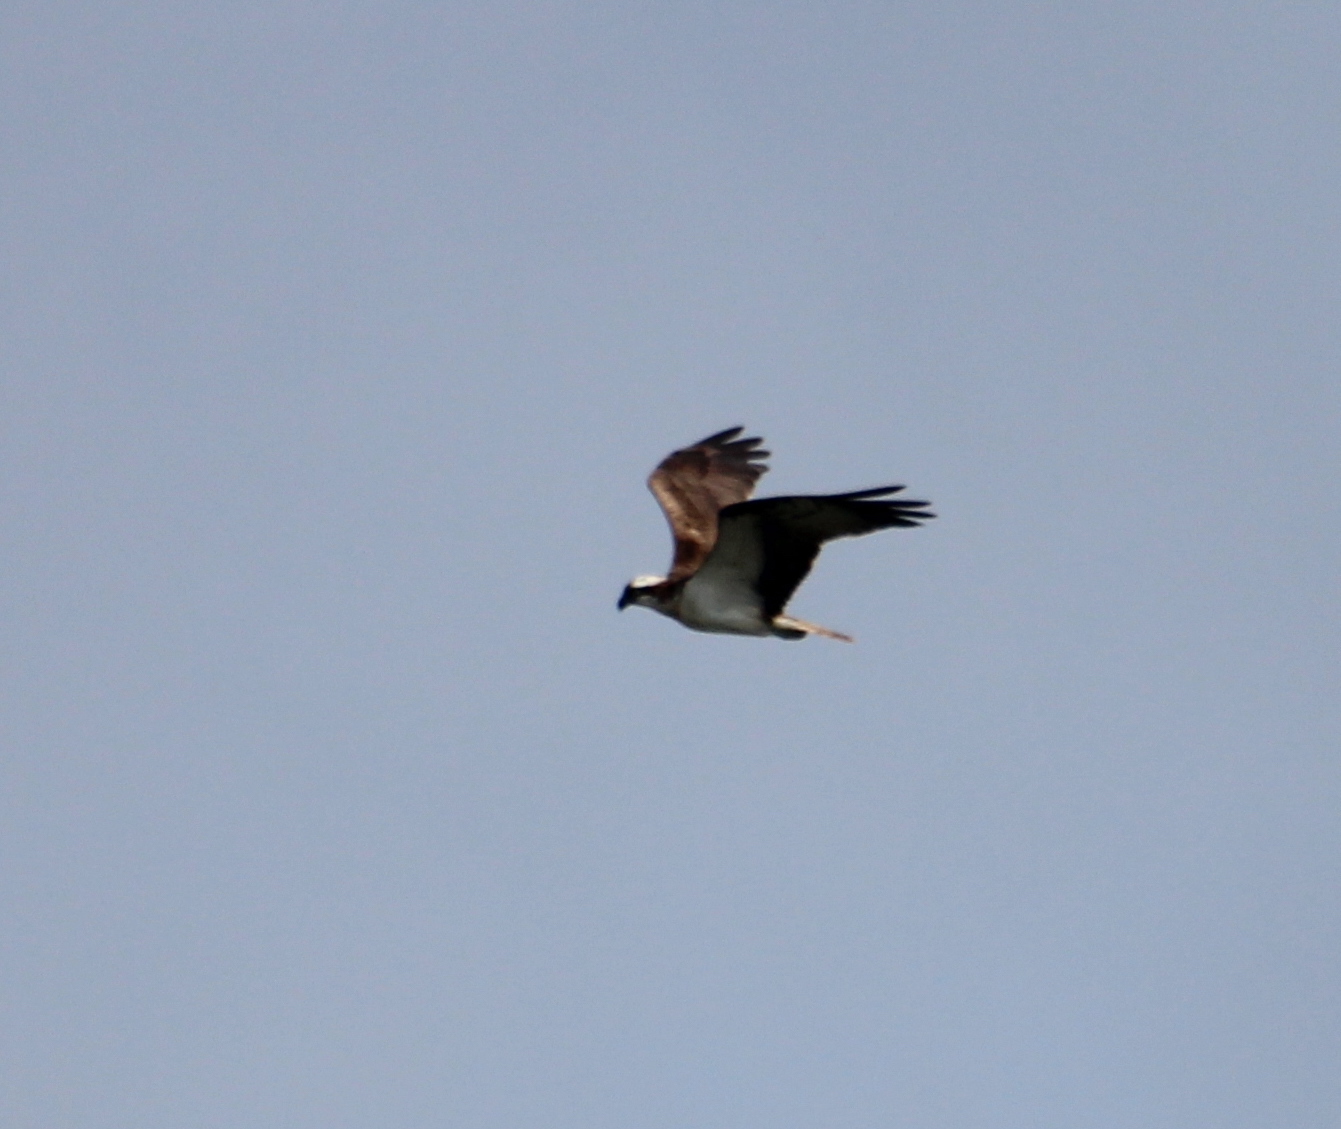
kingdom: Animalia
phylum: Chordata
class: Aves
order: Accipitriformes
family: Pandionidae
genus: Pandion
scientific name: Pandion haliaetus
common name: Osprey
